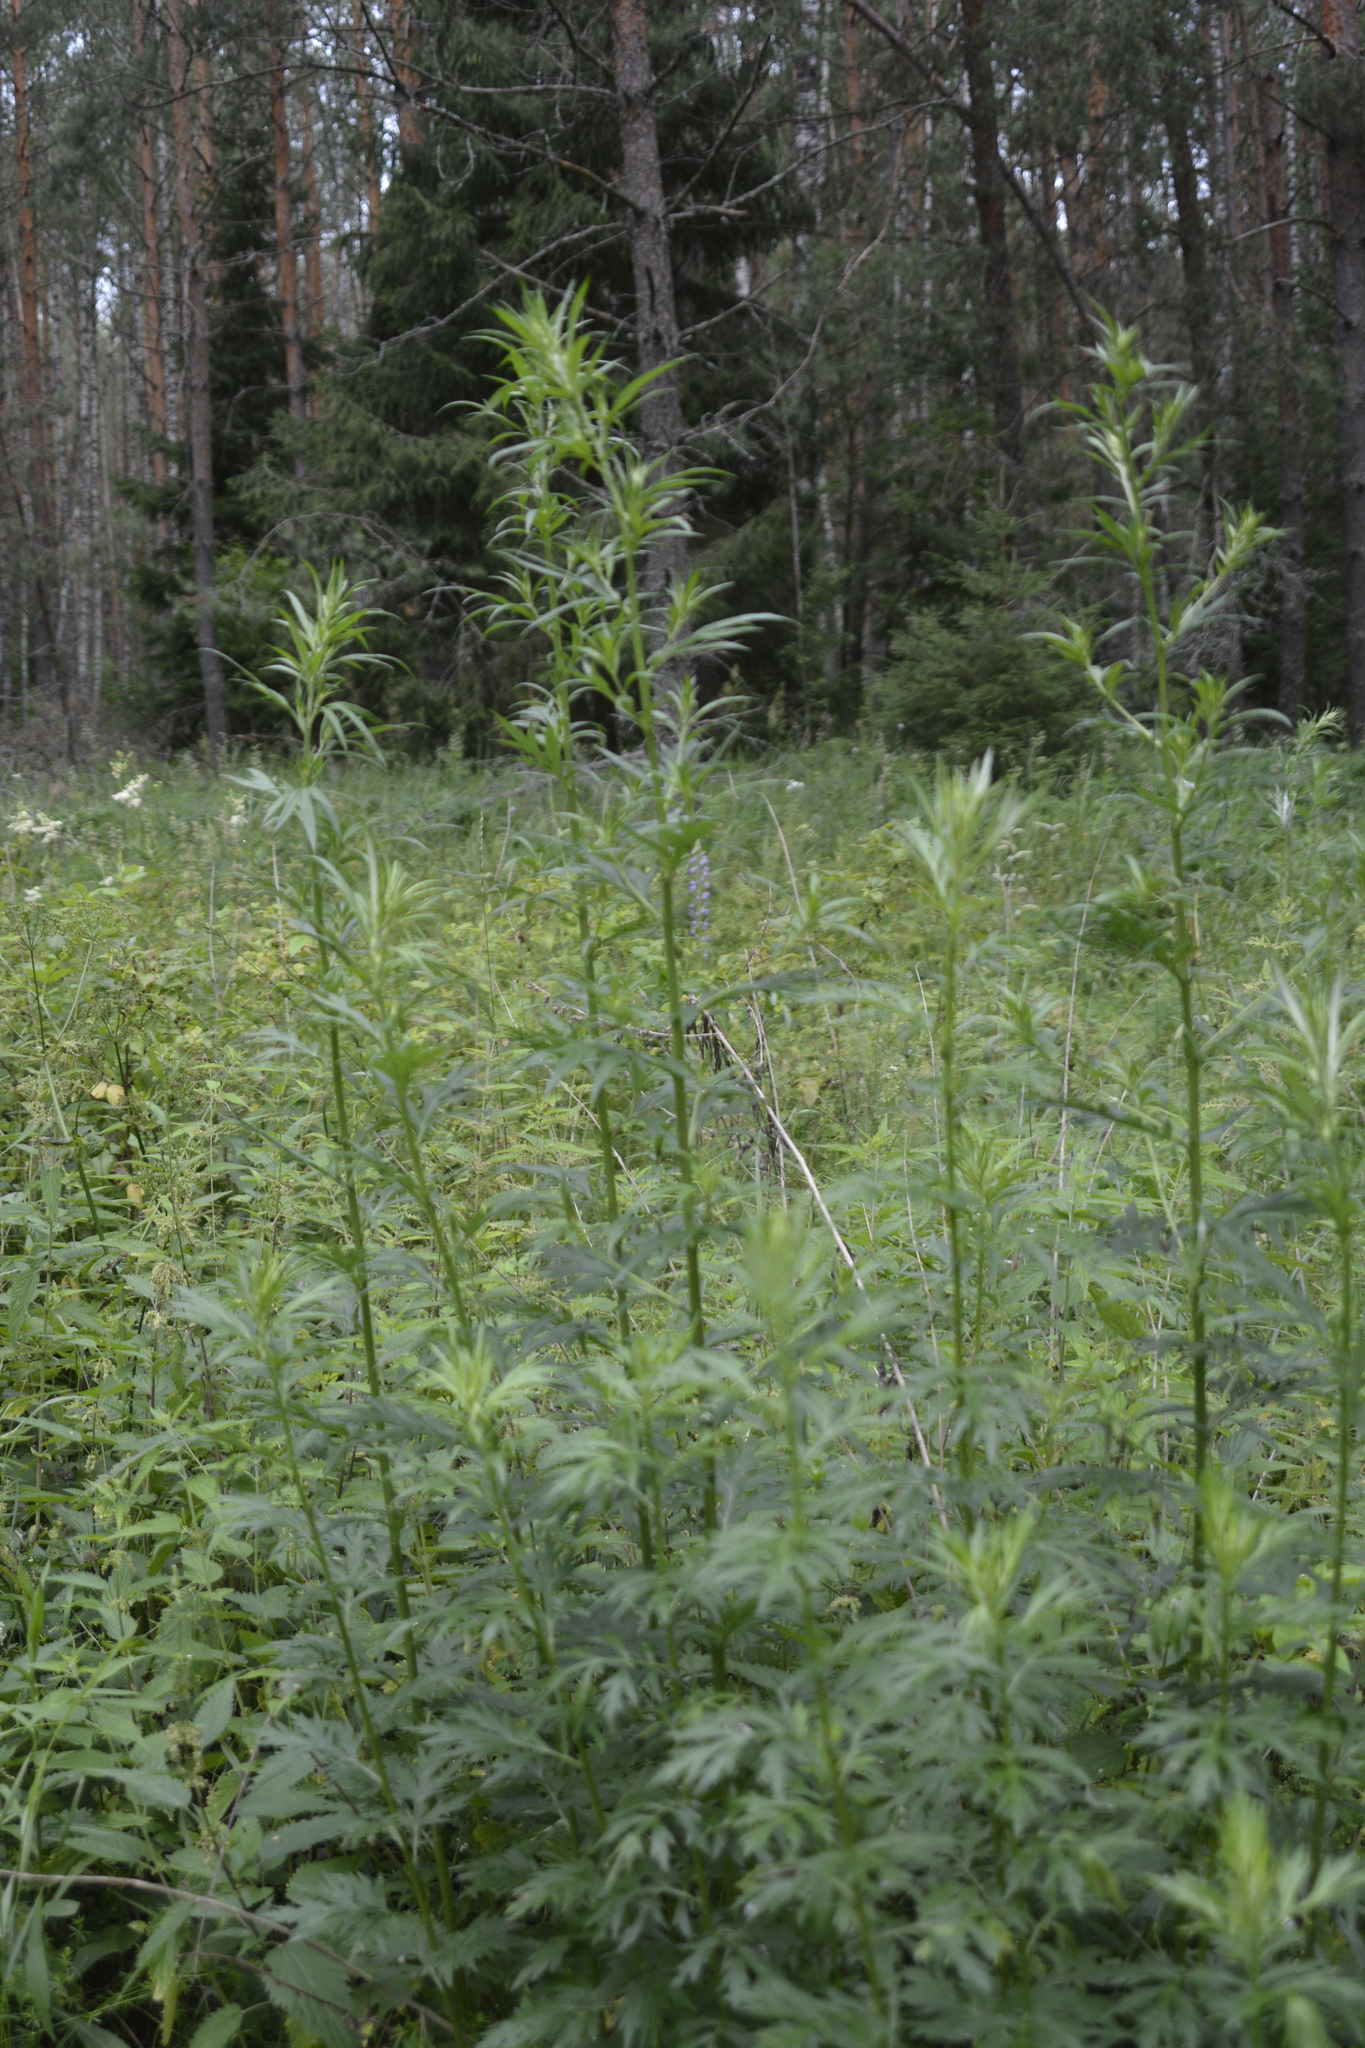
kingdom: Plantae
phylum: Tracheophyta
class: Magnoliopsida
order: Asterales
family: Asteraceae
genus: Artemisia
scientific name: Artemisia vulgaris
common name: Mugwort
